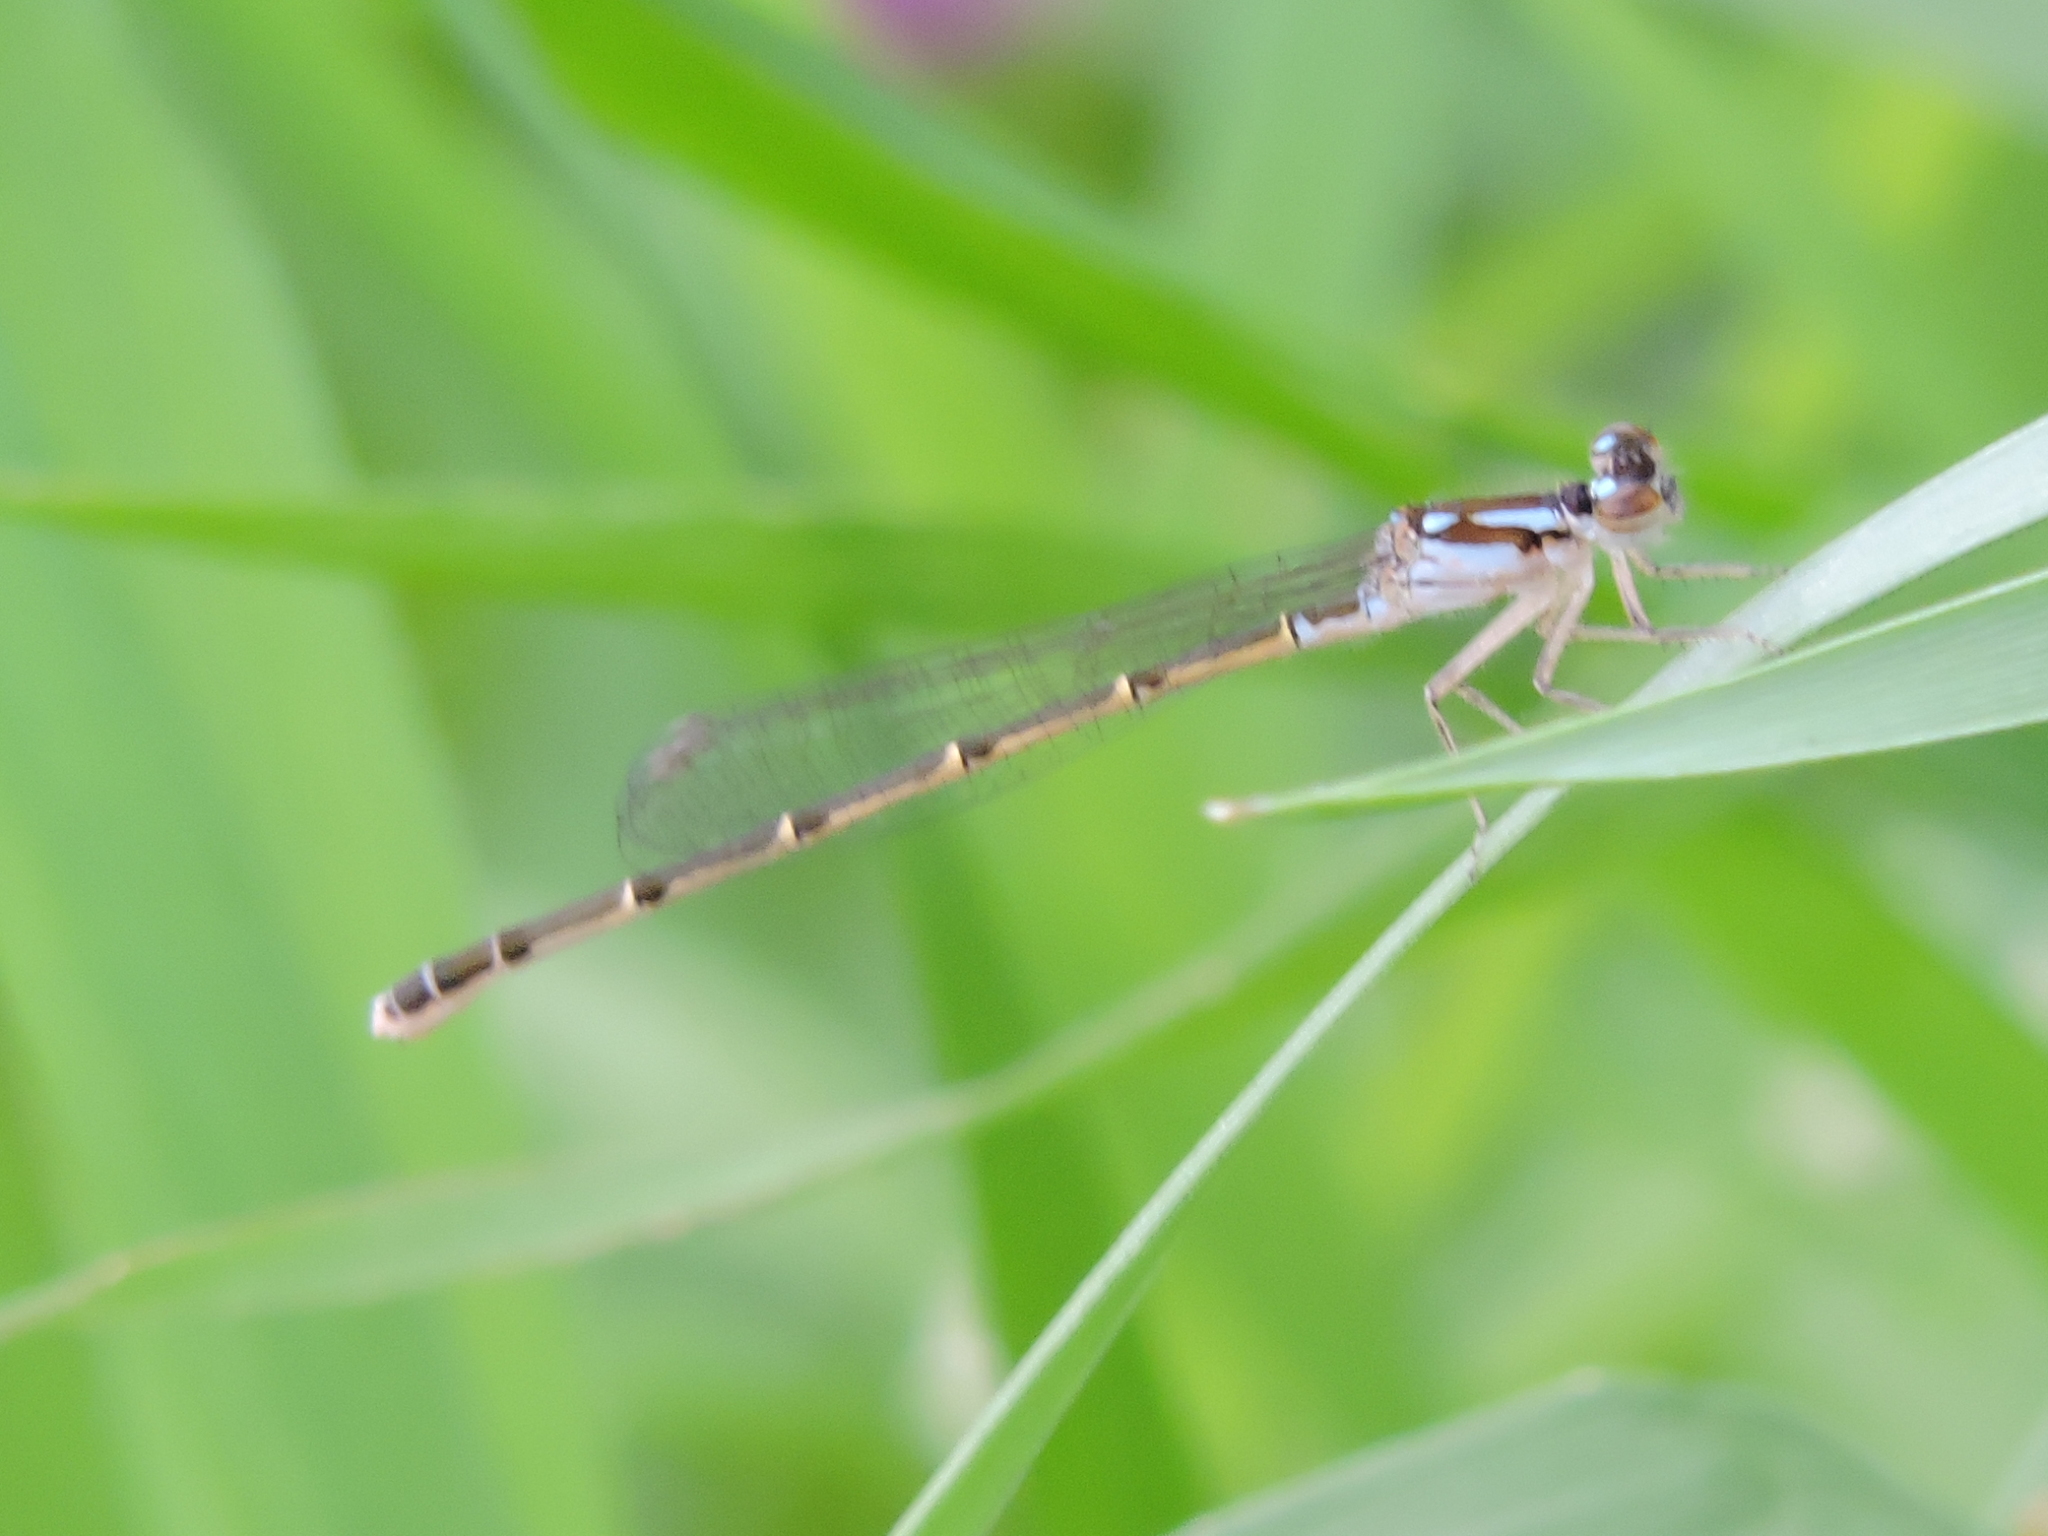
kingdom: Animalia
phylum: Arthropoda
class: Insecta
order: Odonata
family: Coenagrionidae
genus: Ischnura
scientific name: Ischnura posita
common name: Fragile forktail
